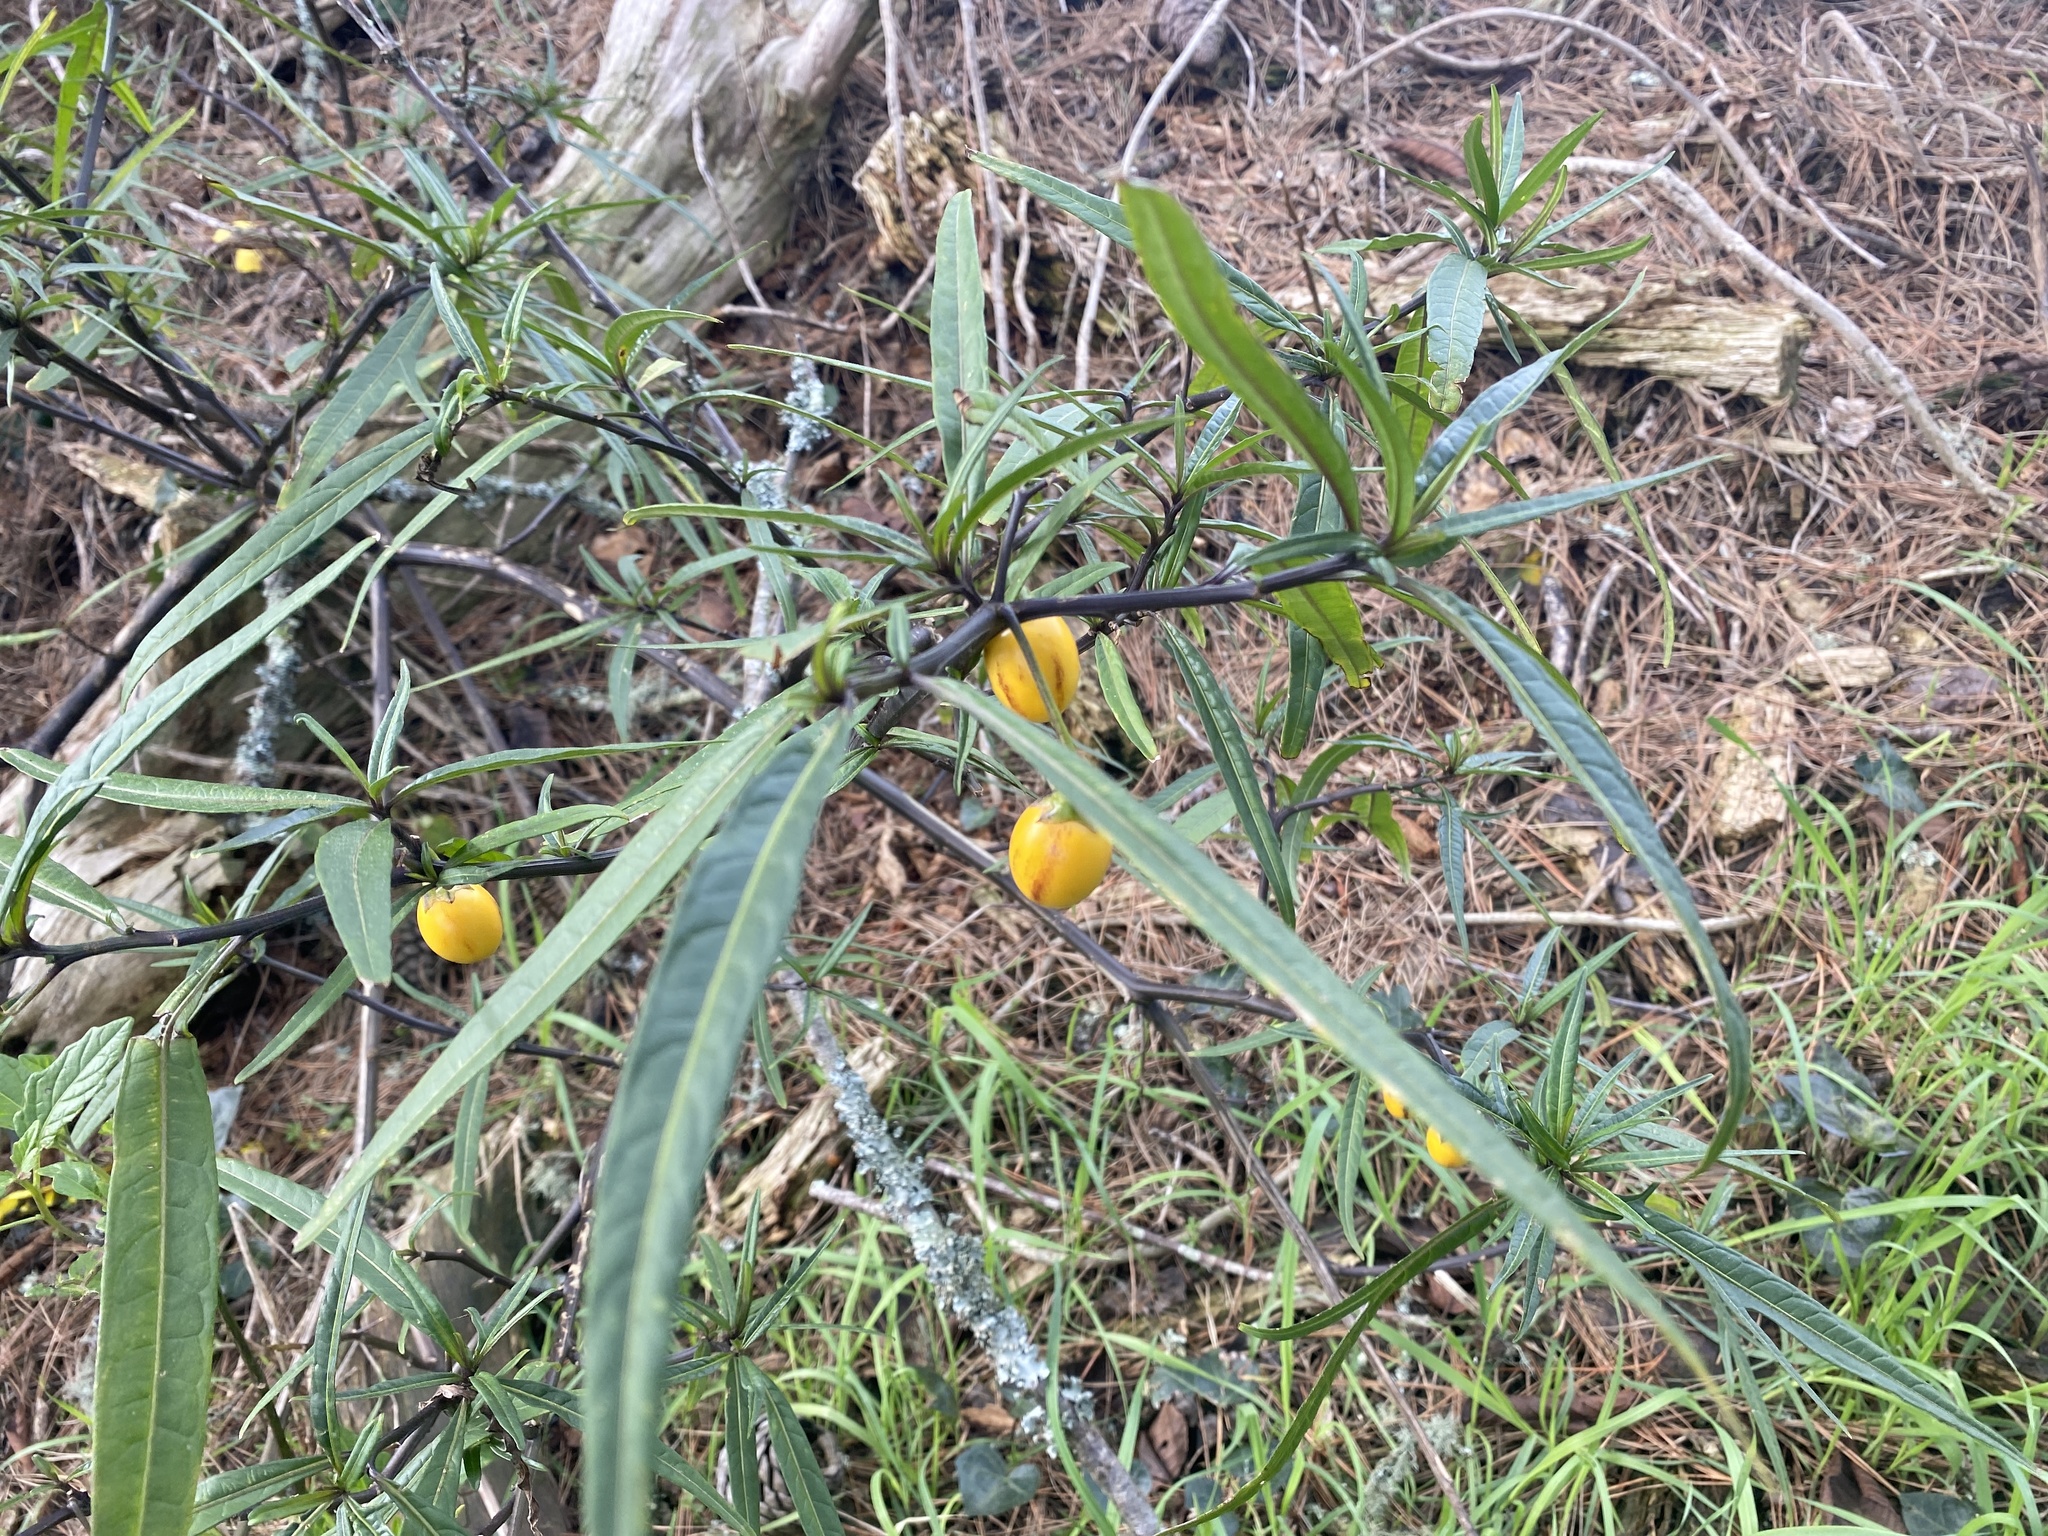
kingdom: Plantae
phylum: Tracheophyta
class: Magnoliopsida
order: Solanales
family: Solanaceae
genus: Solanum
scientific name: Solanum laciniatum
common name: Kangaroo-apple
